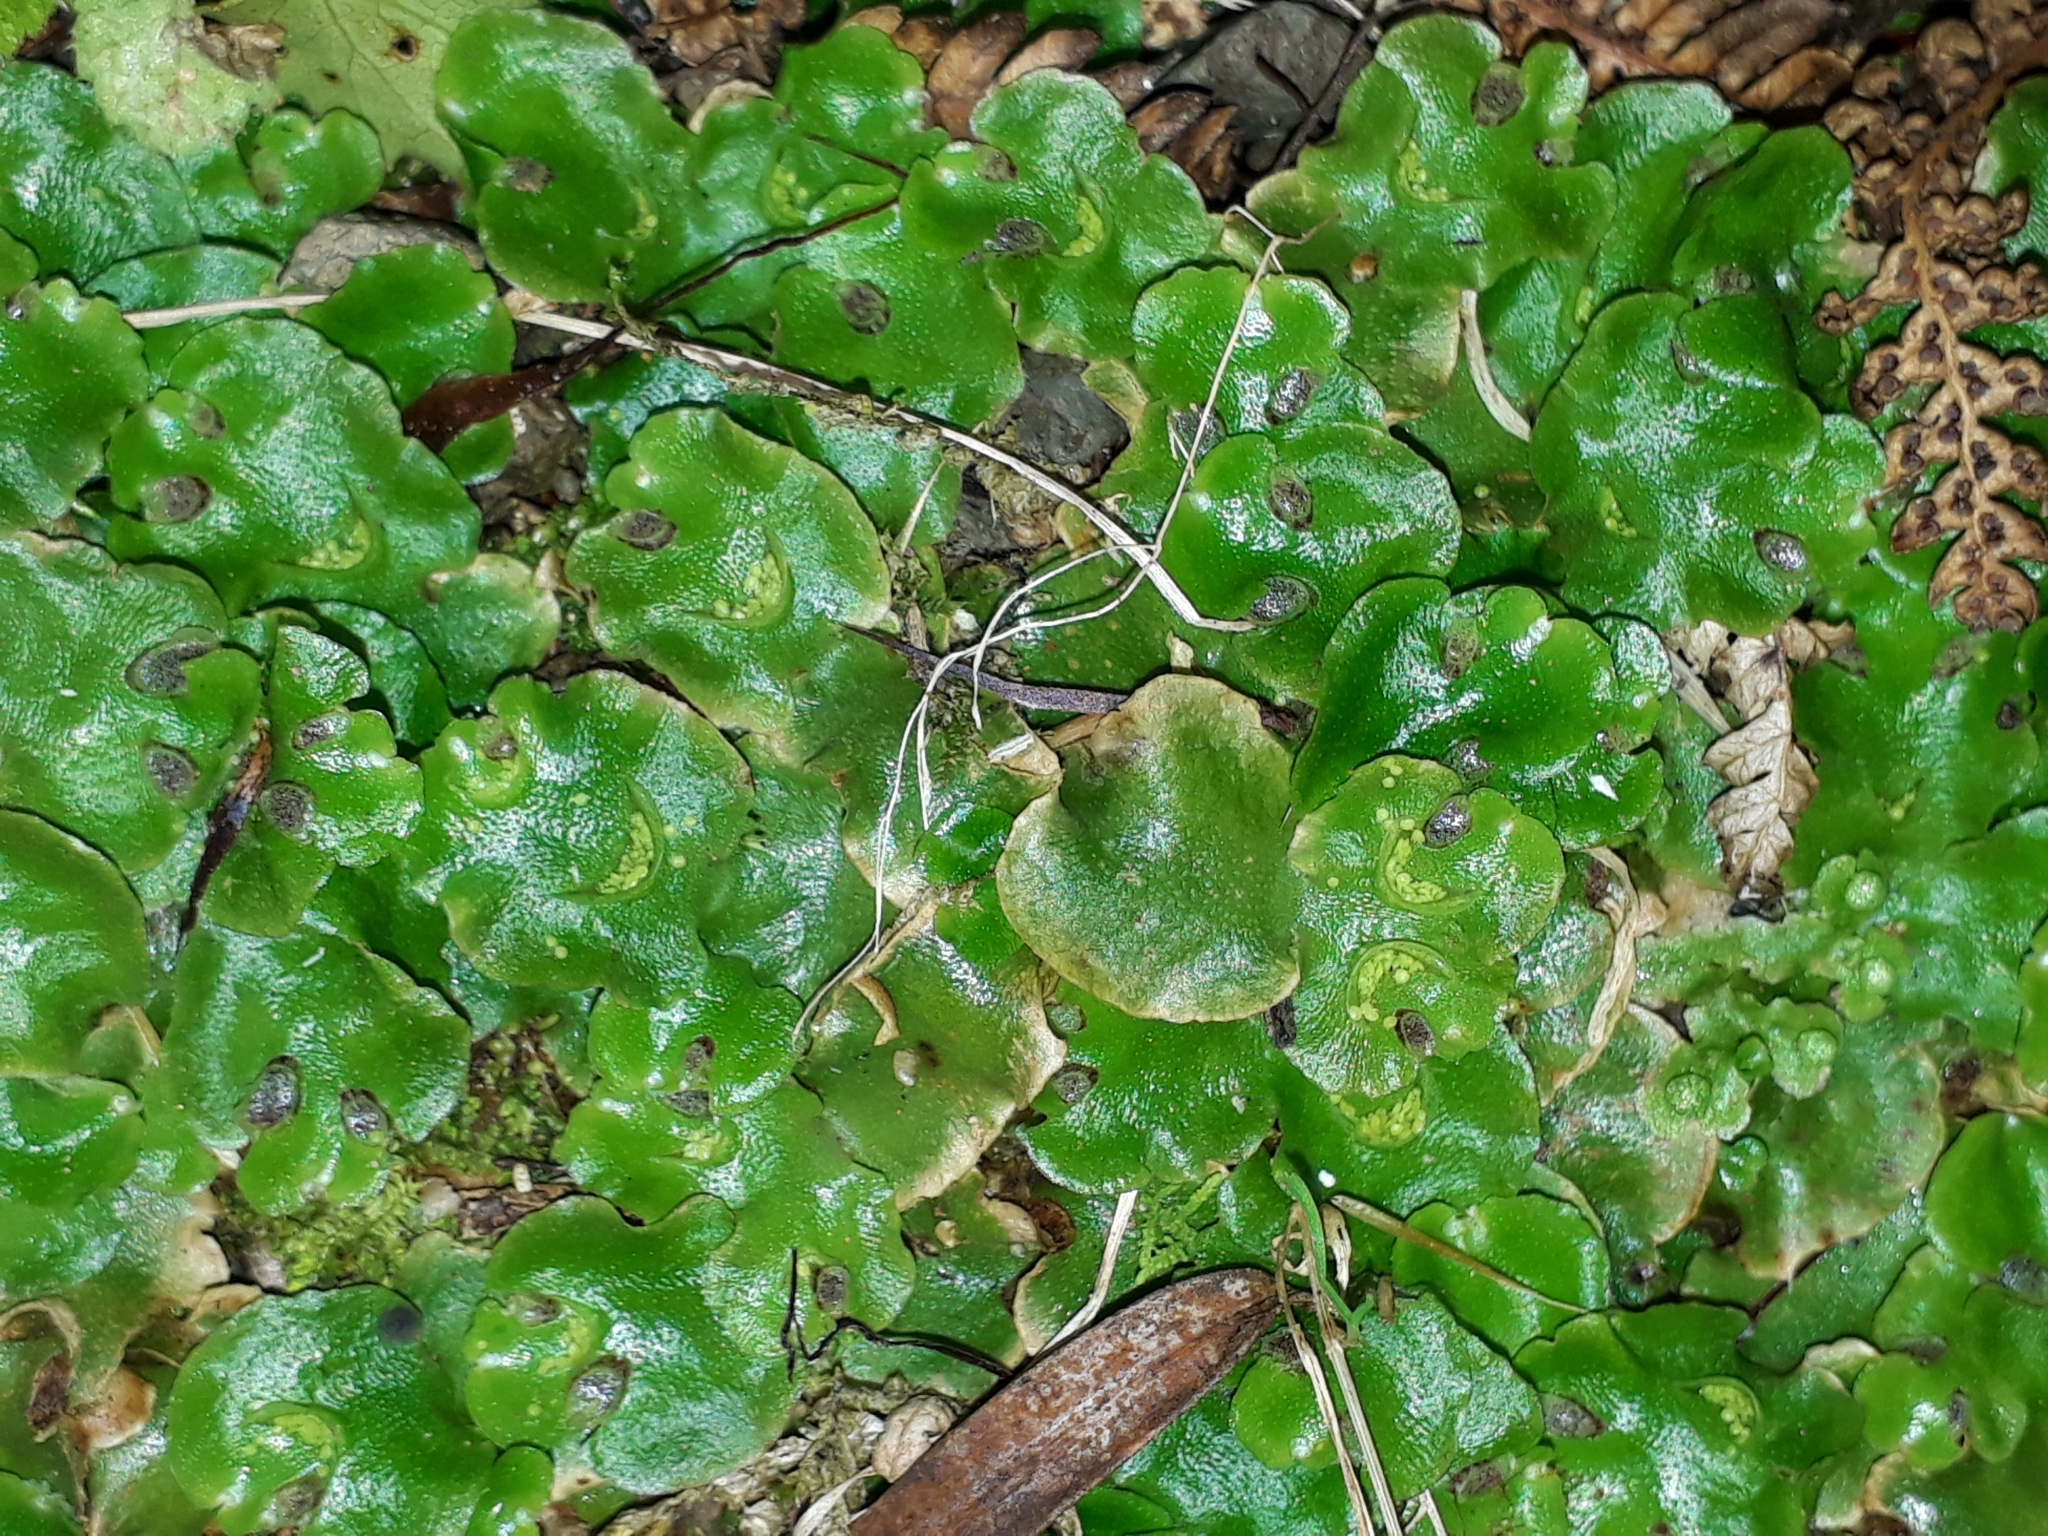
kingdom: Plantae
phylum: Marchantiophyta
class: Marchantiopsida
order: Lunulariales
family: Lunulariaceae
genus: Lunularia
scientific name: Lunularia cruciata
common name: Crescent-cup liverwort
